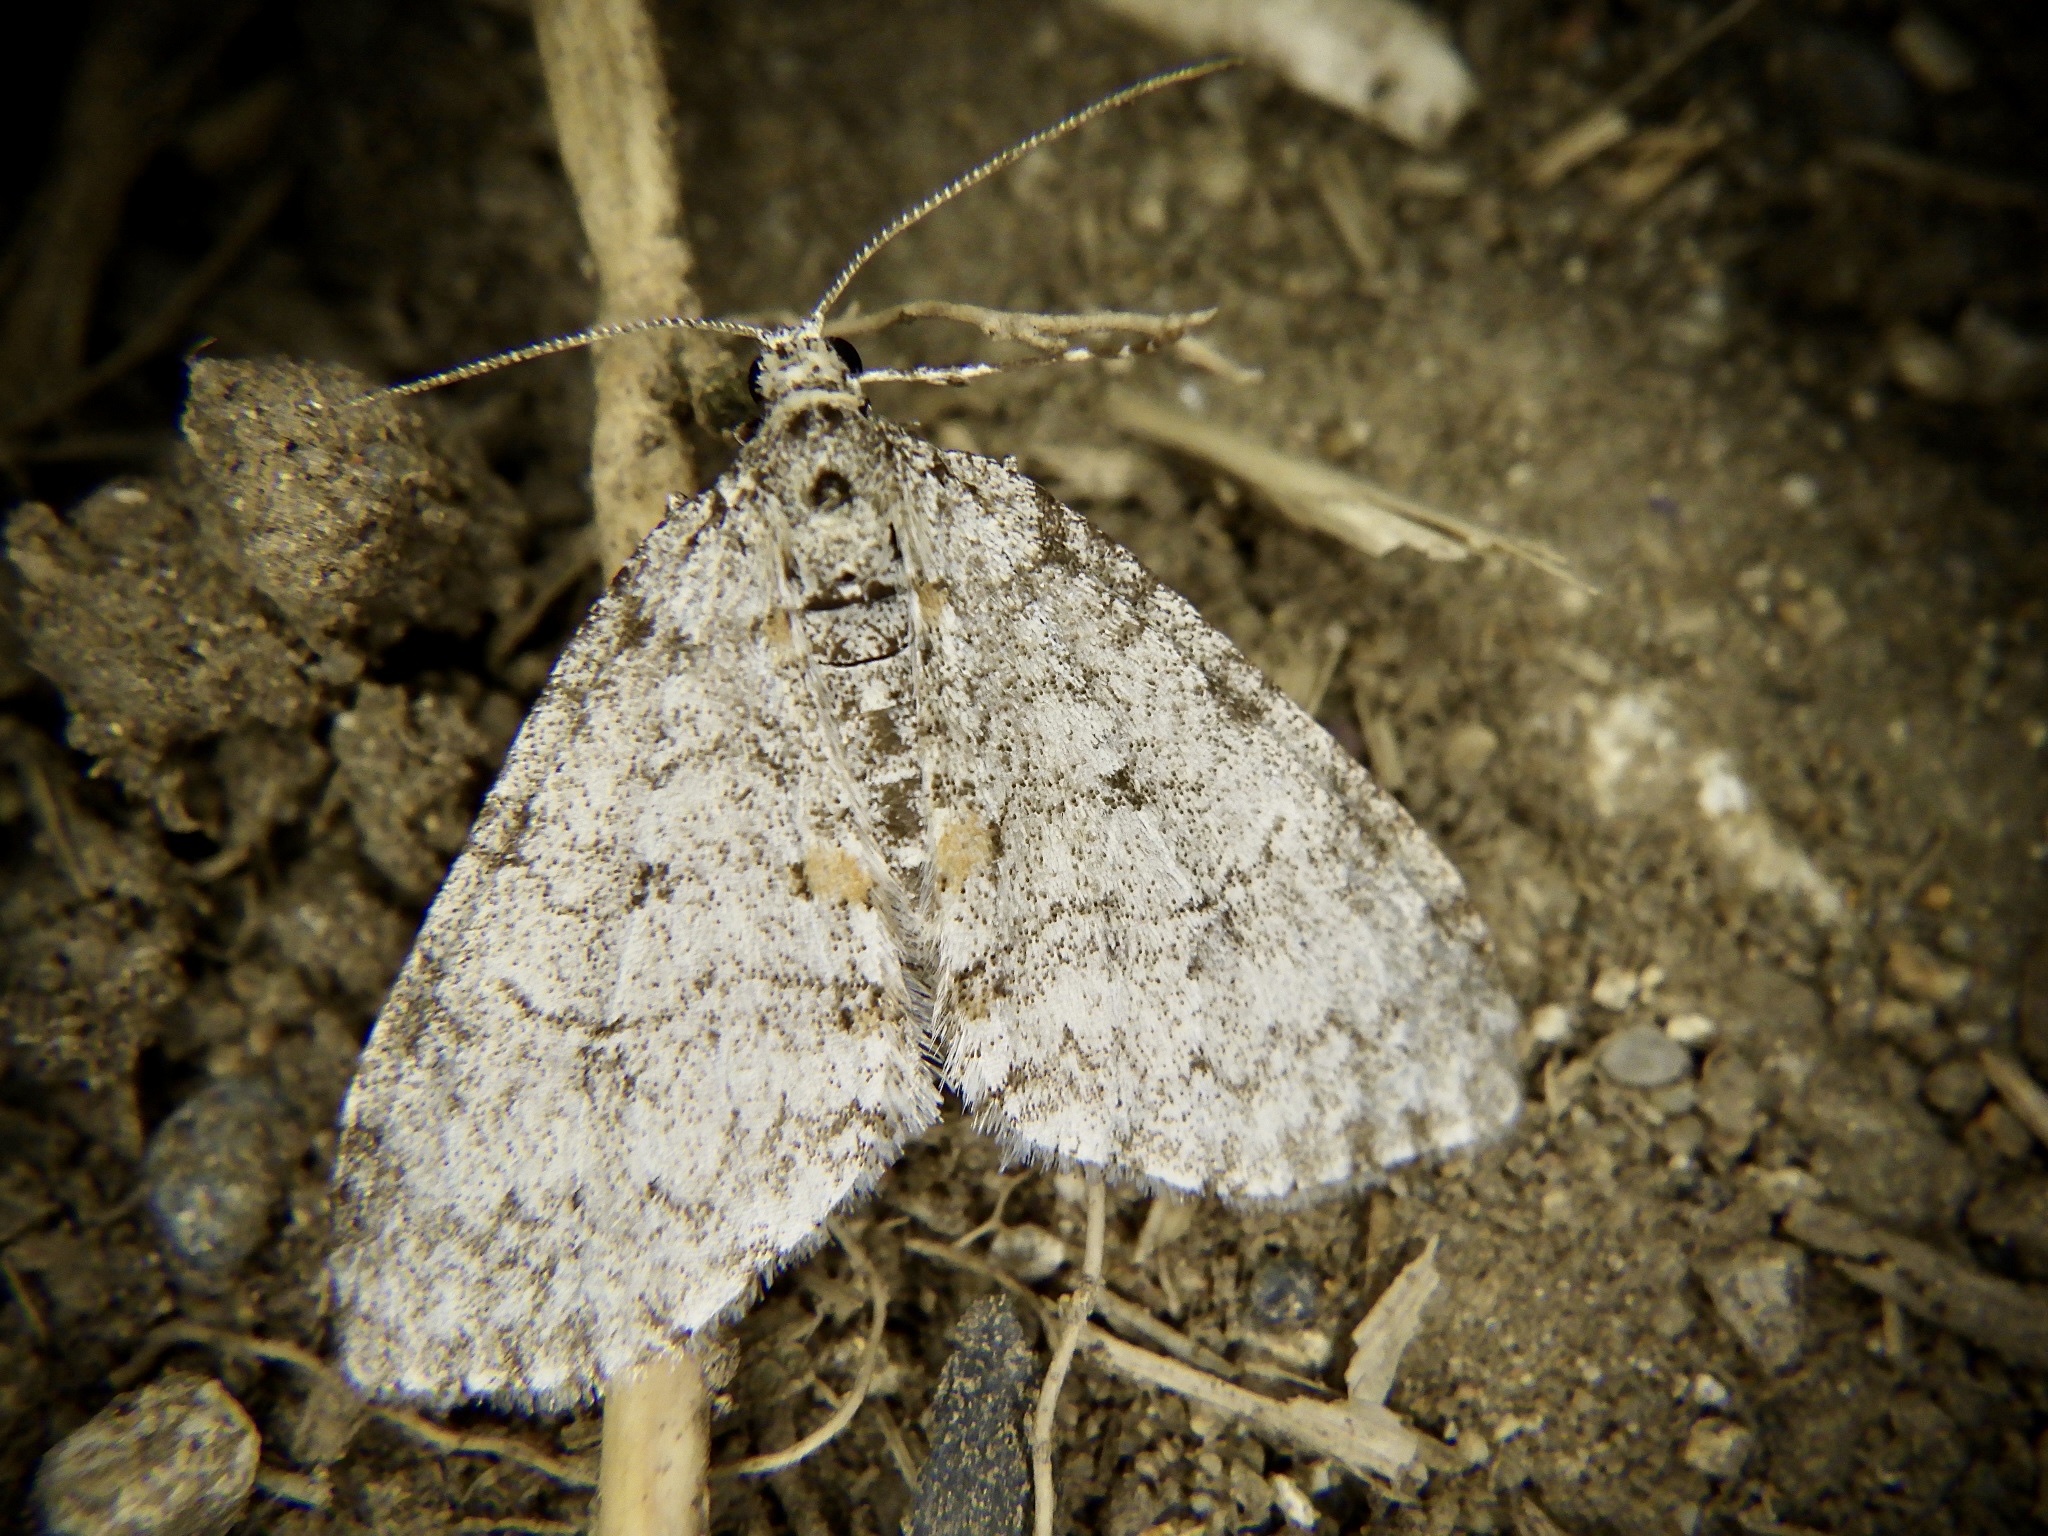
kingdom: Animalia
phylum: Arthropoda
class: Insecta
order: Lepidoptera
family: Geometridae
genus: Trichopteryx
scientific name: Trichopteryx hemana
